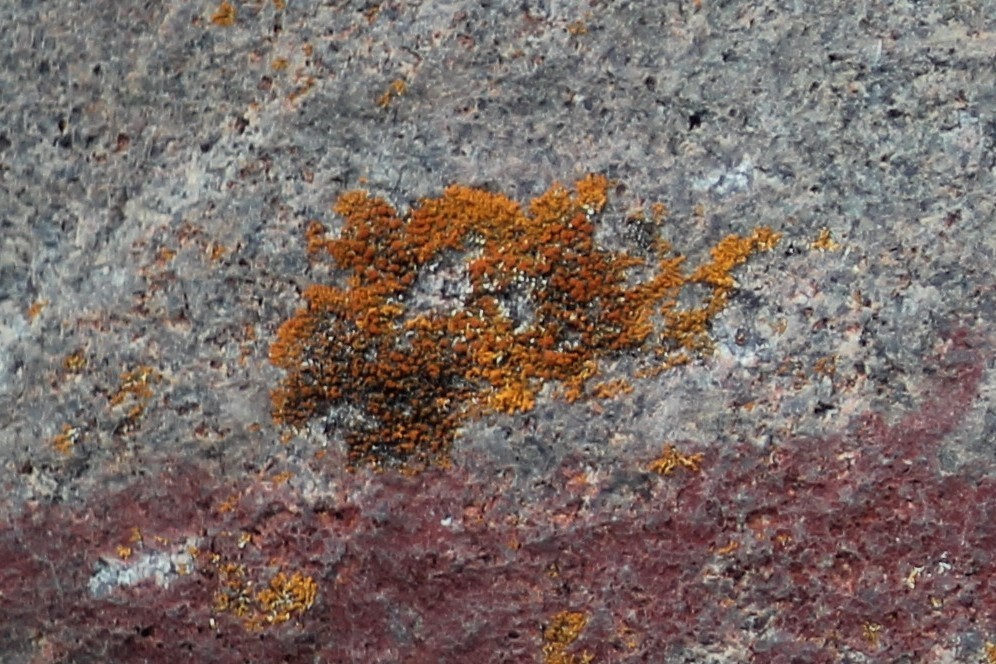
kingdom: Fungi
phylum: Ascomycota
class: Lecanoromycetes
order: Teloschistales
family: Teloschistaceae
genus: Xanthoria
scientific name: Xanthoria elegans
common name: Elegant sunburst lichen
